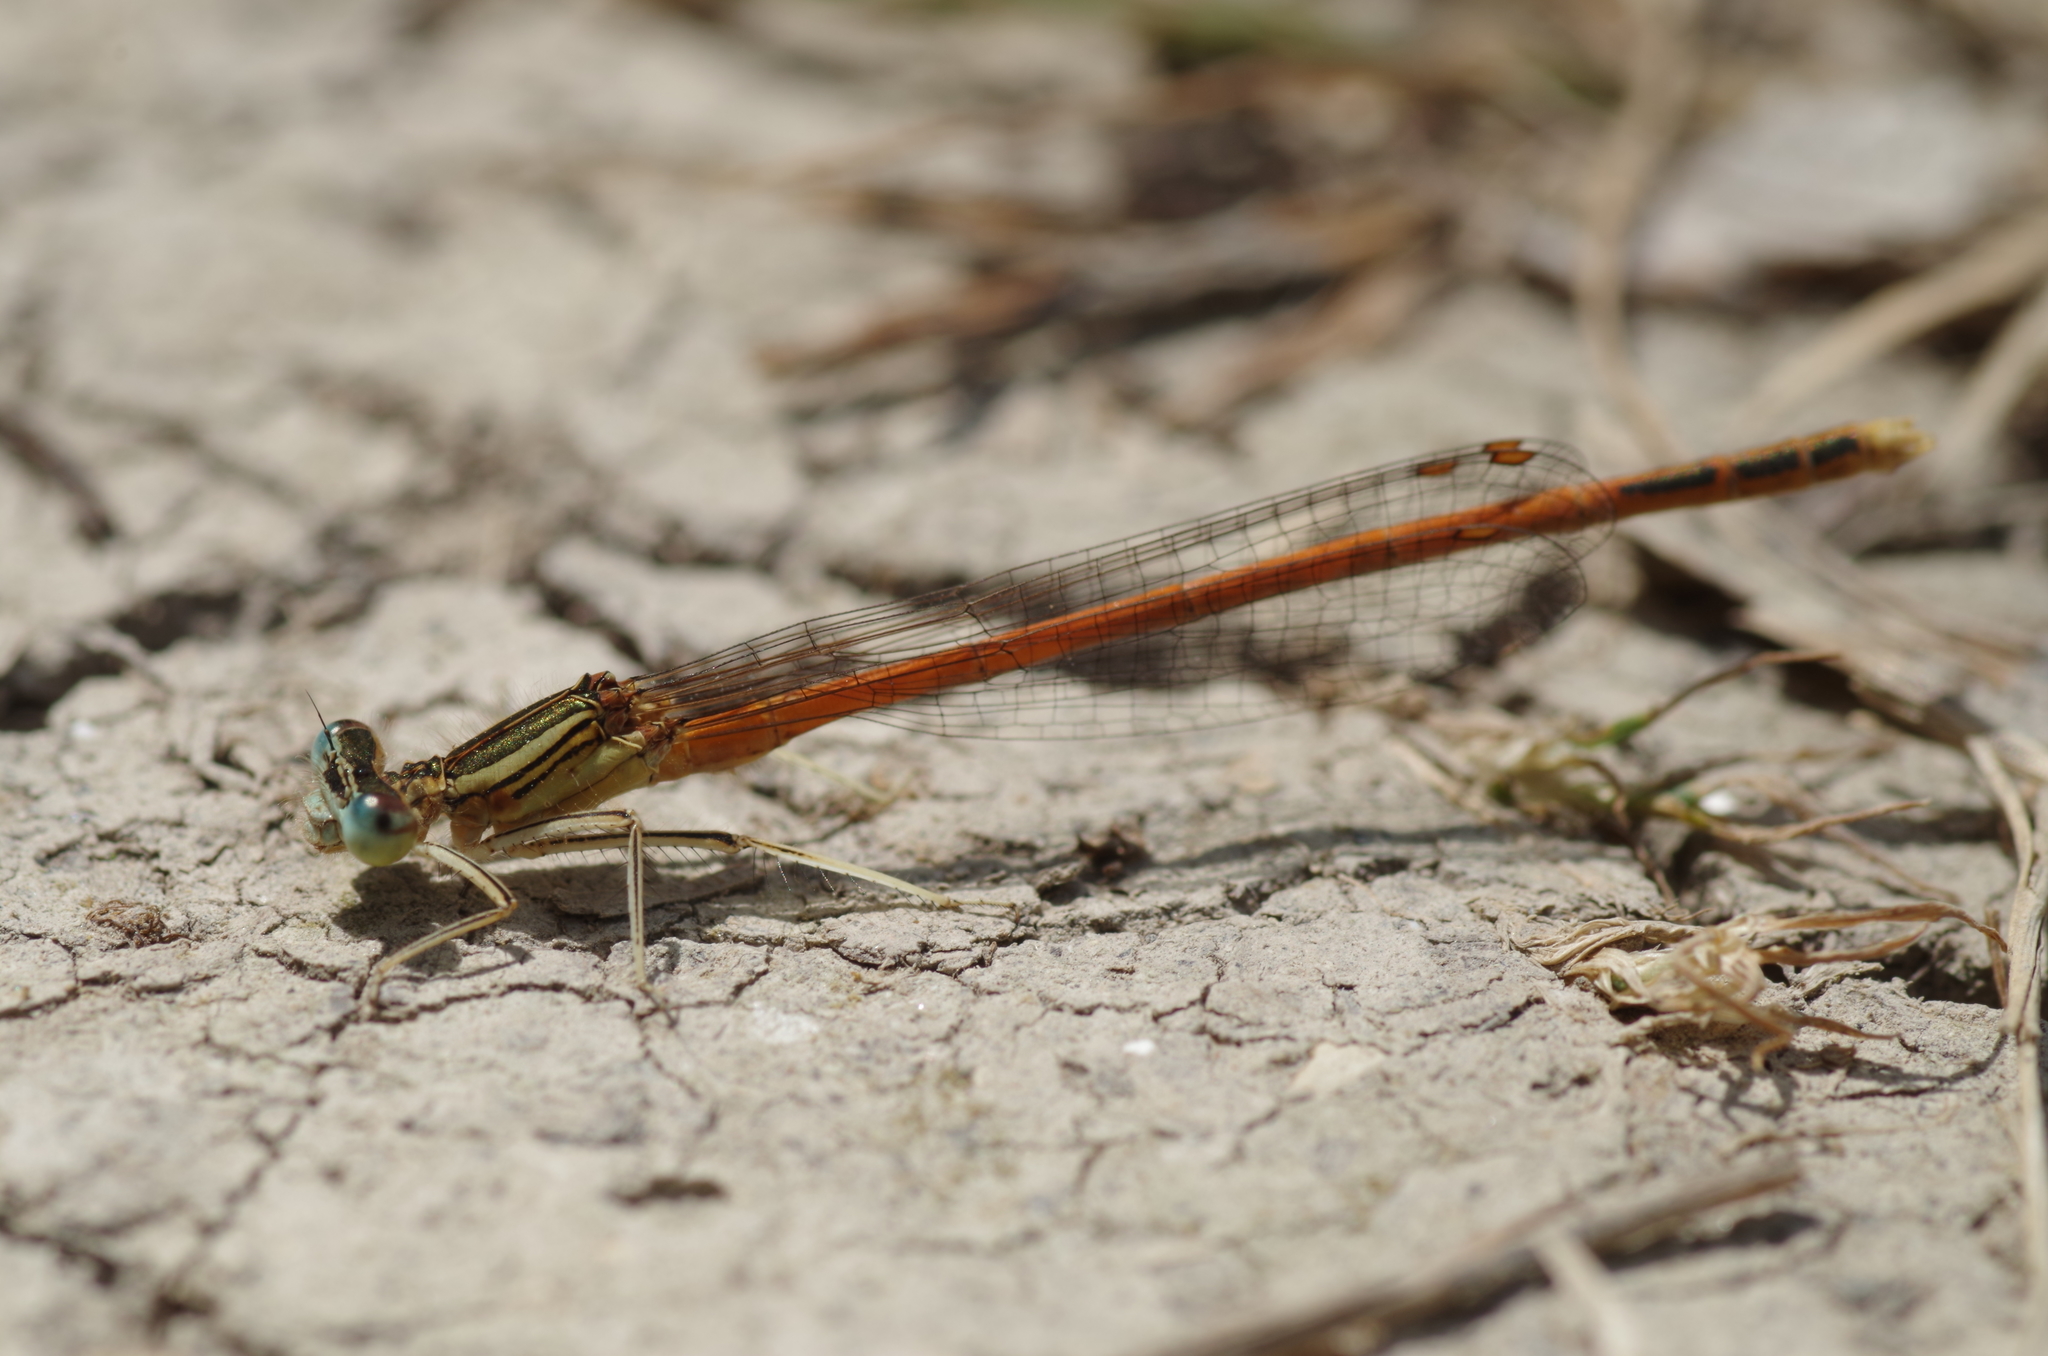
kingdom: Animalia
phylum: Arthropoda
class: Insecta
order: Odonata
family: Platycnemididae
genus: Platycnemis
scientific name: Platycnemis acutipennis
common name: Orange featherleg
